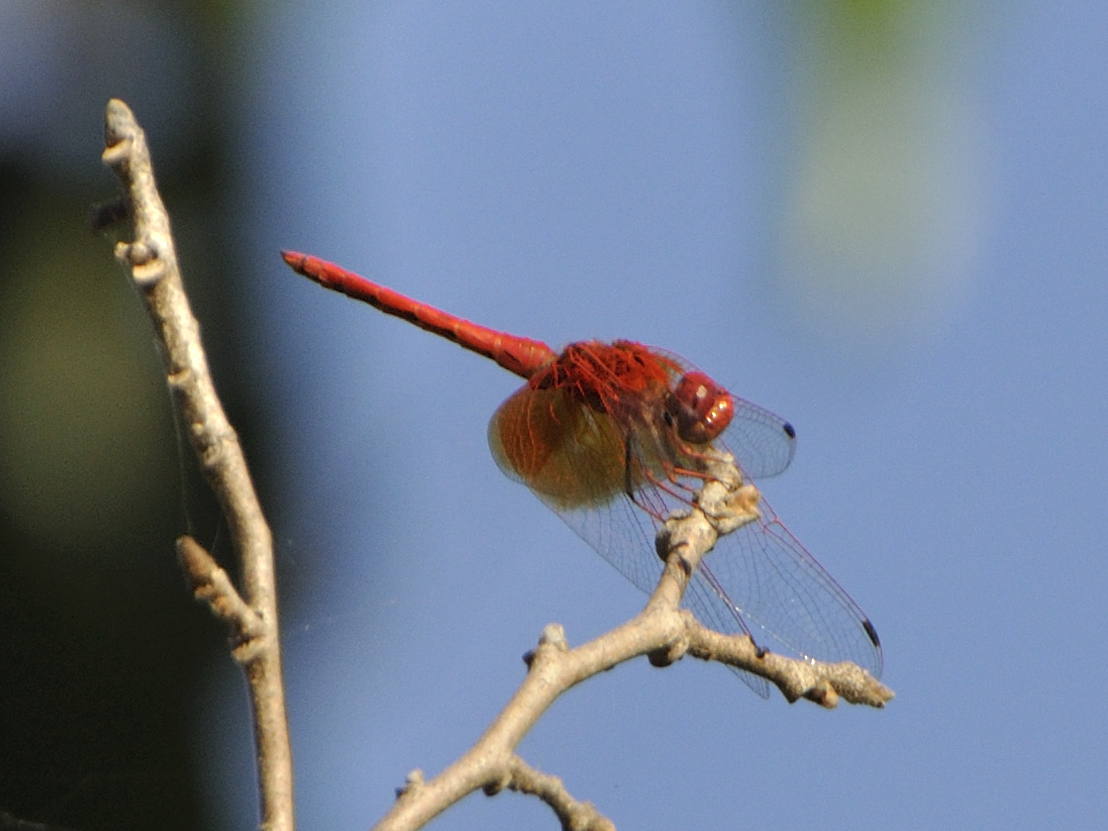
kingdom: Animalia
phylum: Arthropoda
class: Insecta
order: Odonata
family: Libellulidae
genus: Trithemis
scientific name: Trithemis kirbyi
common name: Kirby's dropwing
